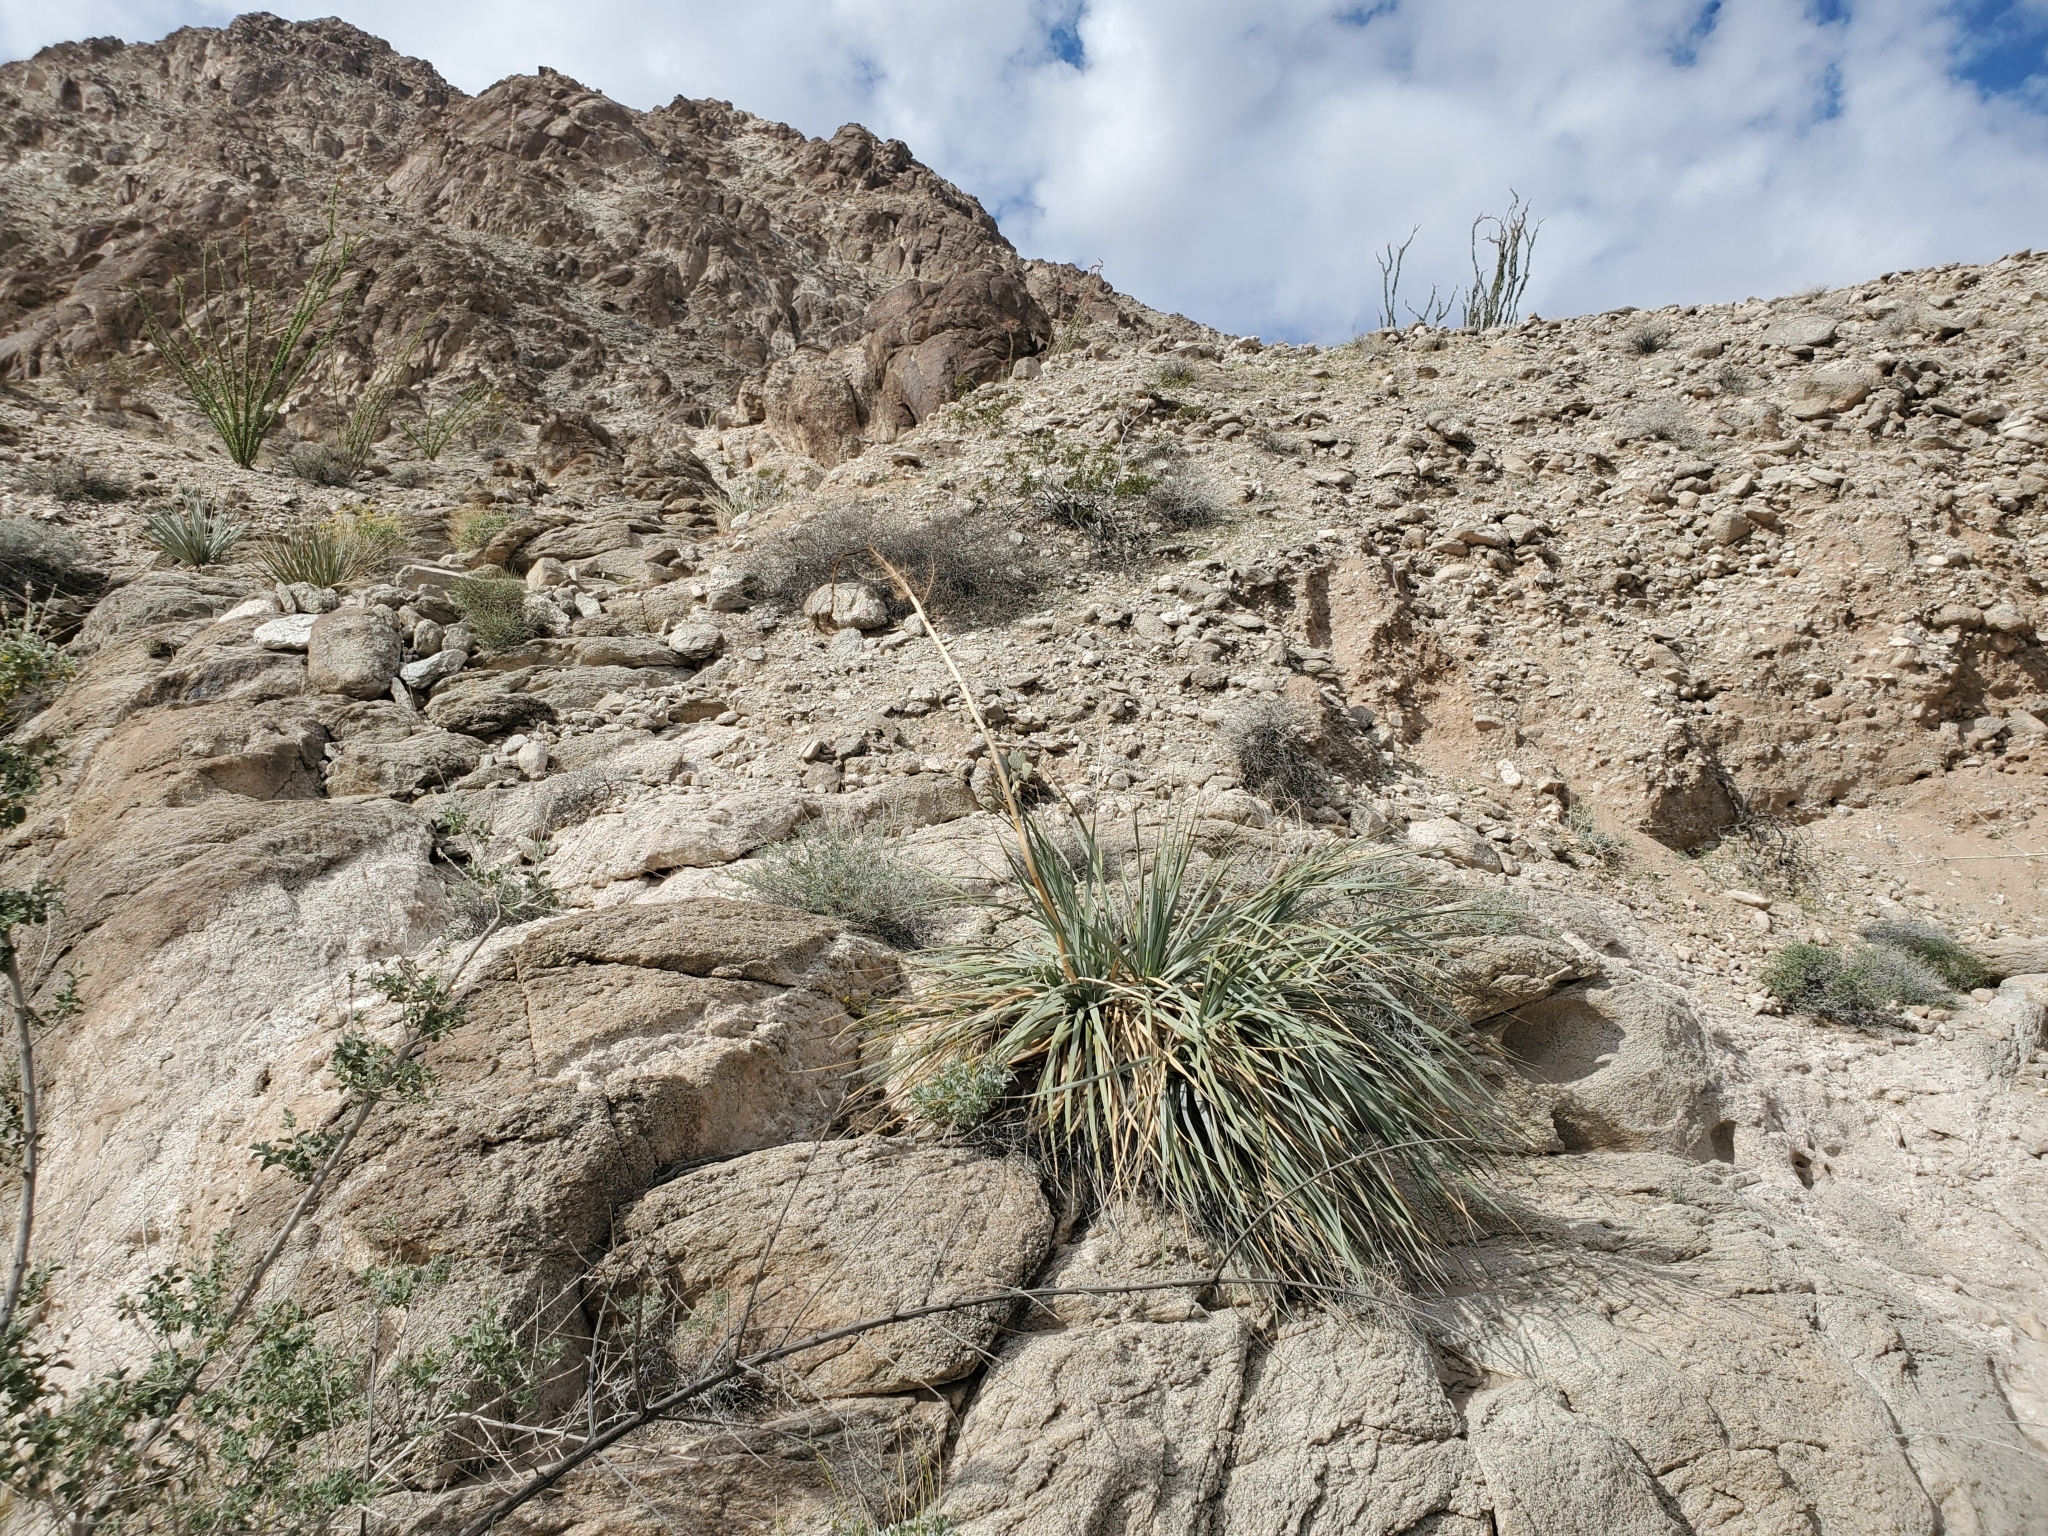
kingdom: Plantae
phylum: Tracheophyta
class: Liliopsida
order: Asparagales
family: Asparagaceae
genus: Nolina
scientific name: Nolina bigelovii
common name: Bigelow bear-grass
